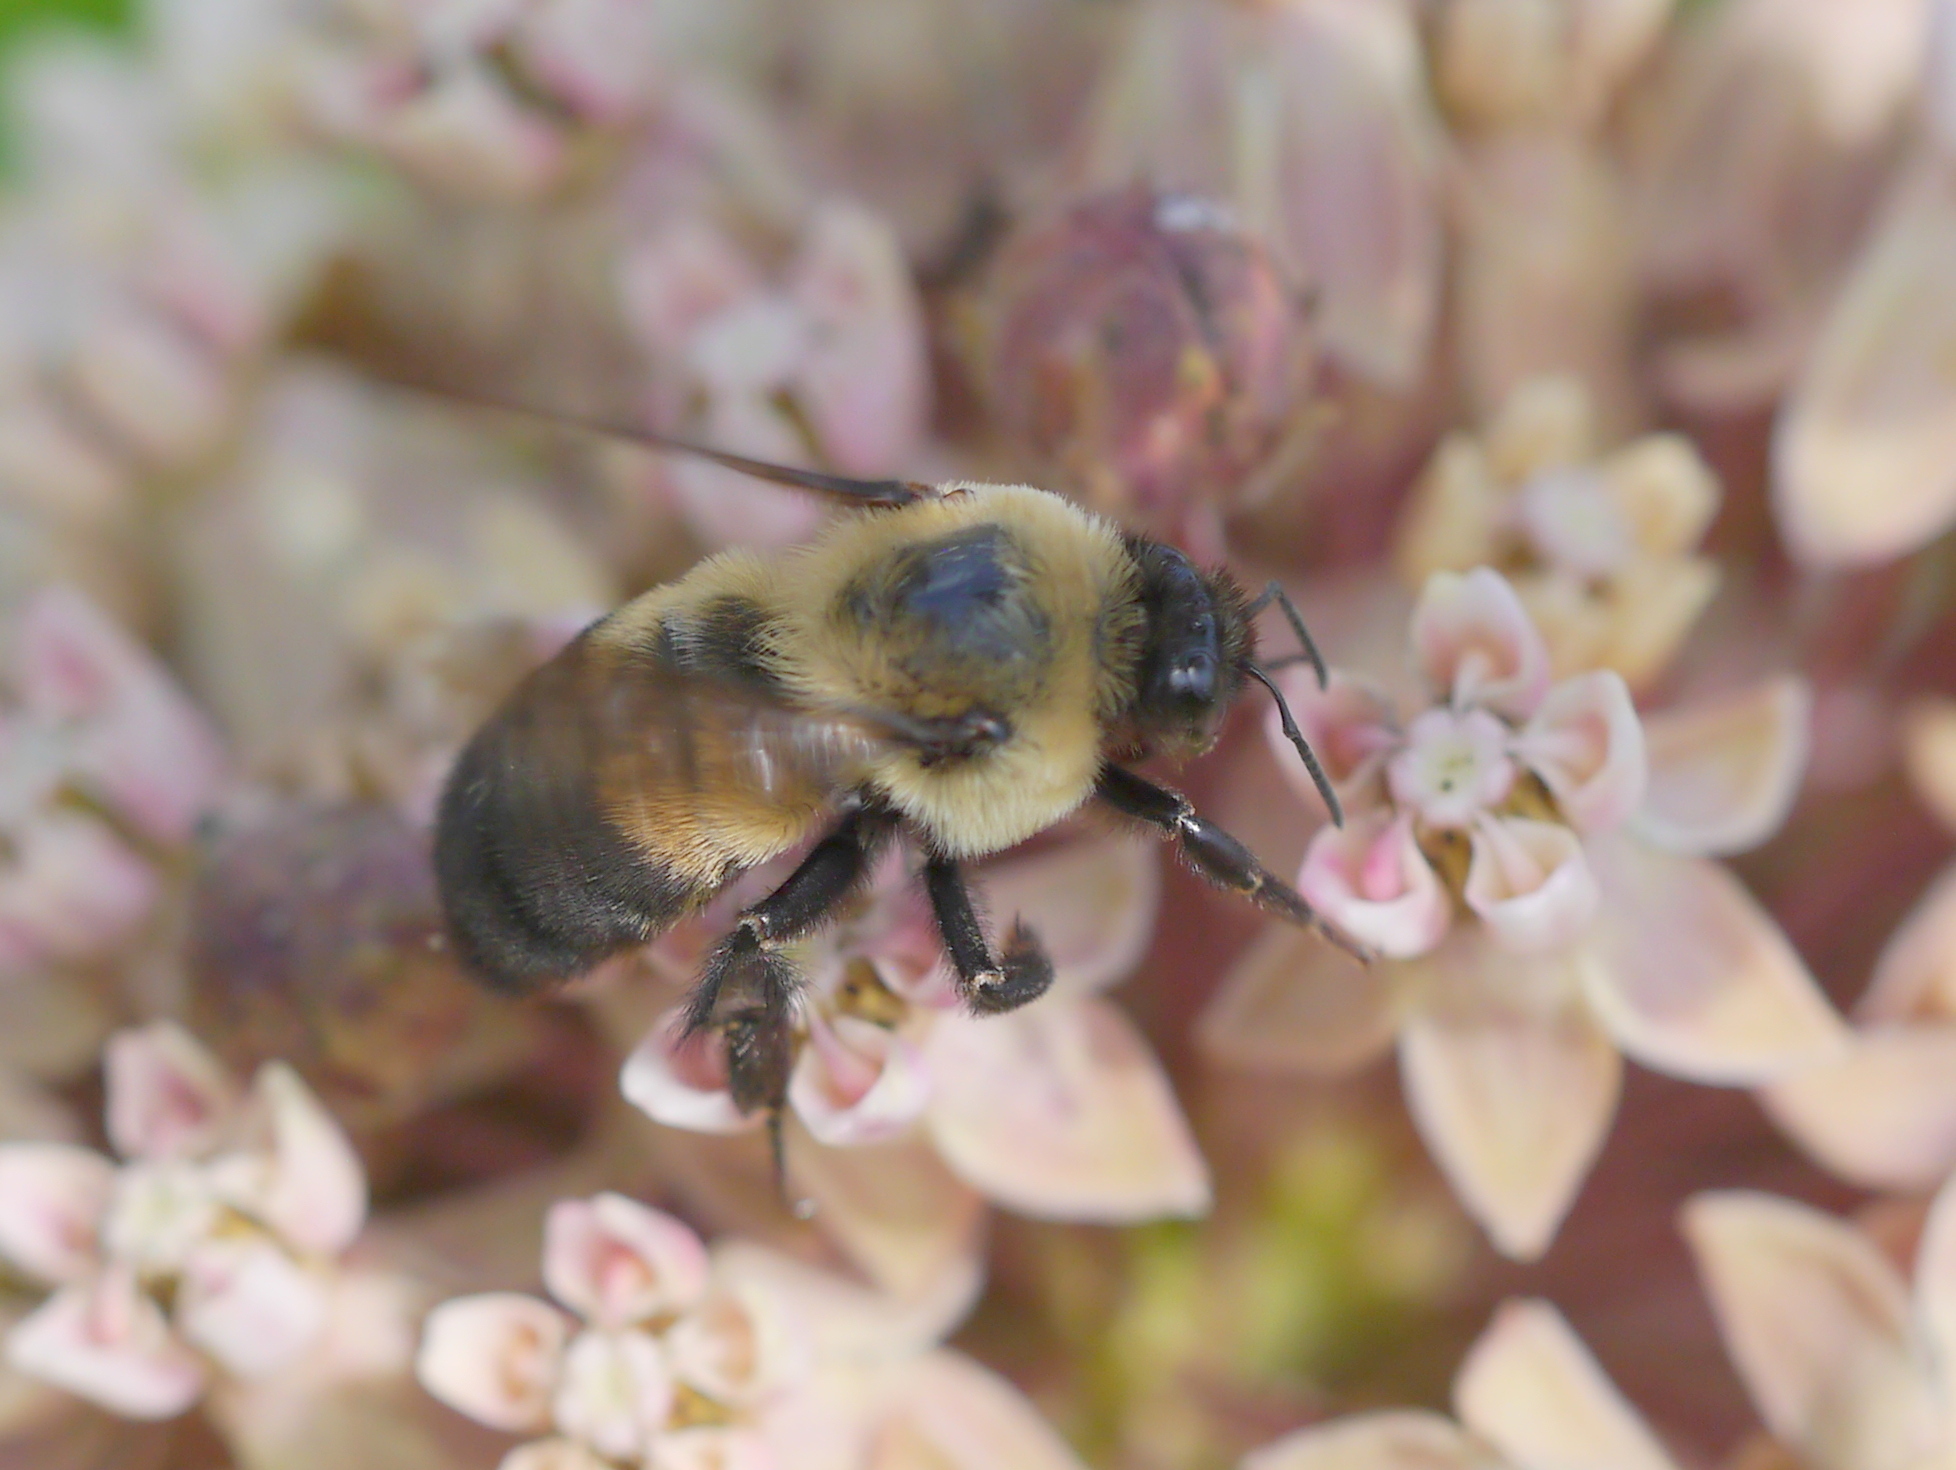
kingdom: Animalia
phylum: Arthropoda
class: Insecta
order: Hymenoptera
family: Apidae
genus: Bombus
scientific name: Bombus griseocollis
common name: Brown-belted bumble bee
